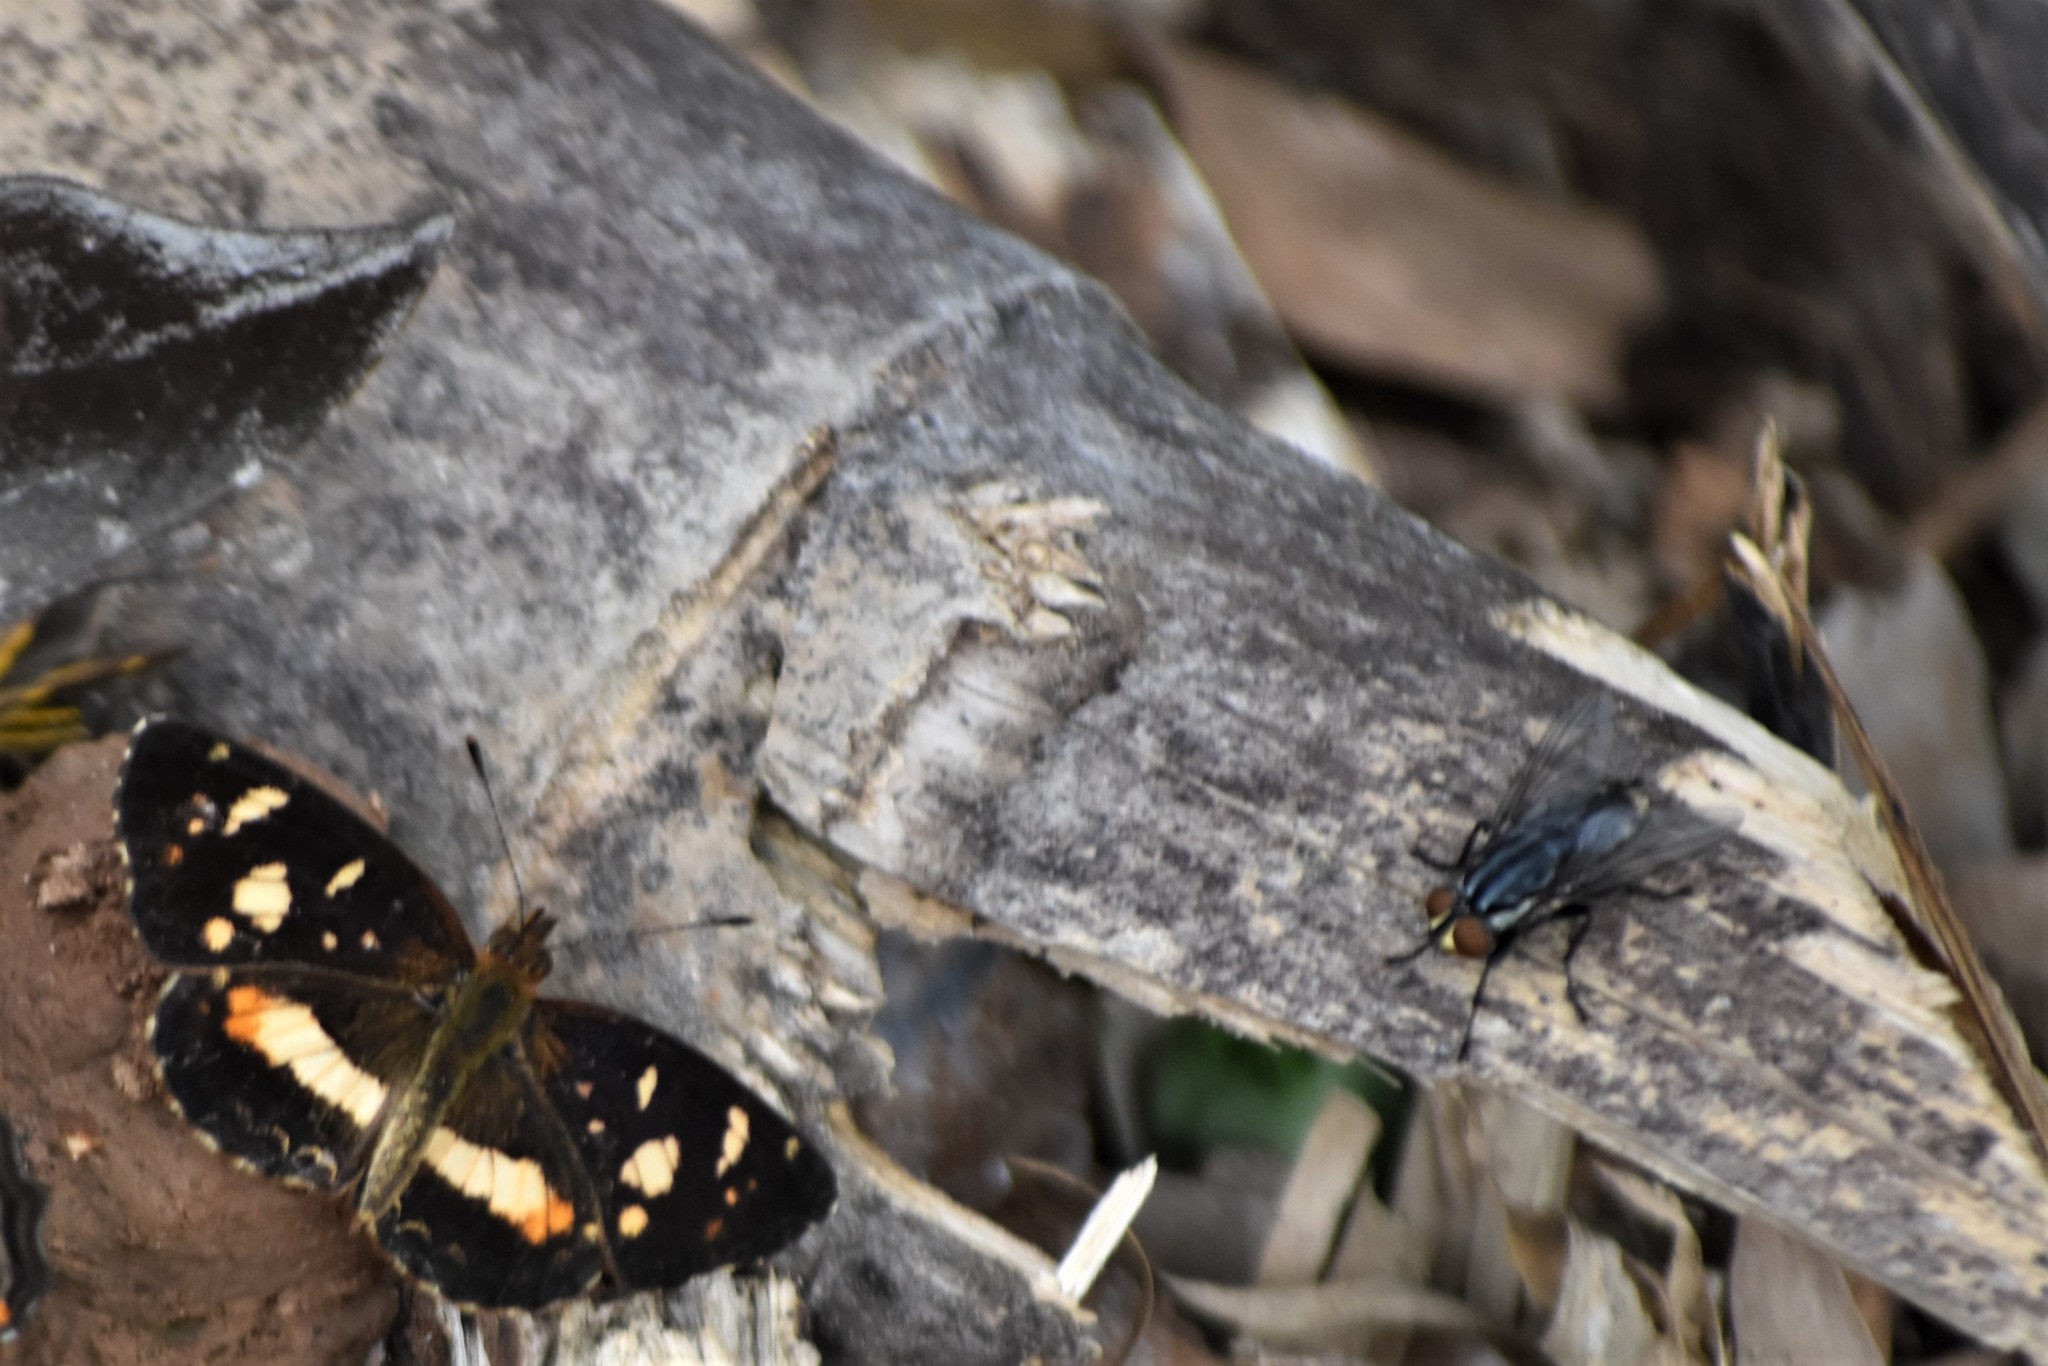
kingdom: Animalia
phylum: Arthropoda
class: Insecta
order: Lepidoptera
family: Nymphalidae
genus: Ortilia
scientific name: Ortilia orthia
